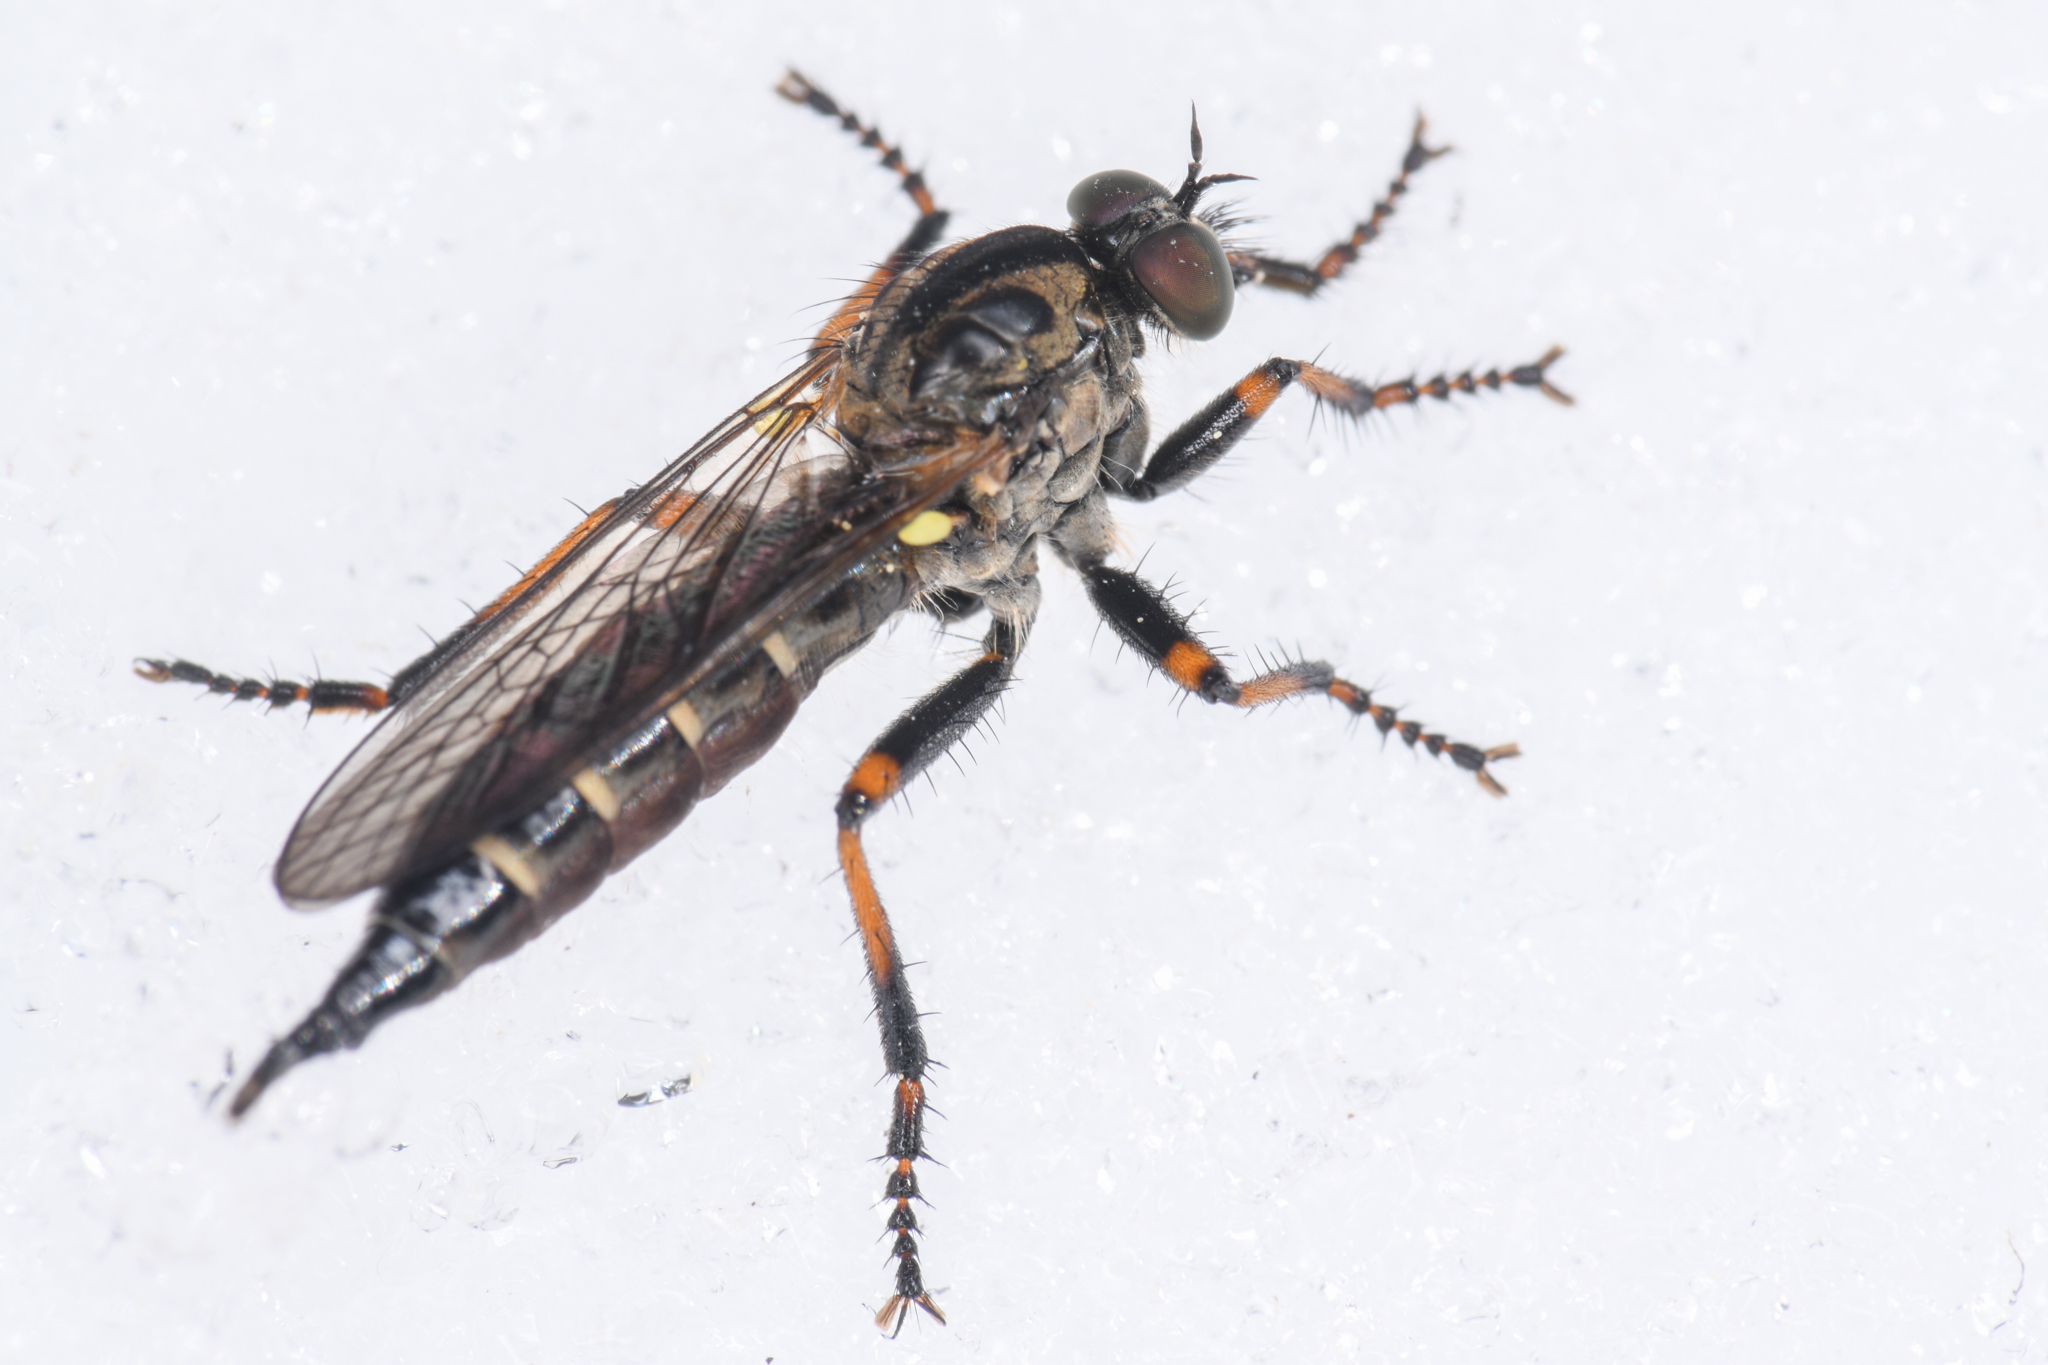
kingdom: Animalia
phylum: Arthropoda
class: Insecta
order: Diptera
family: Asilidae
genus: Nevadasilus
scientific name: Nevadasilus auriannulatus
